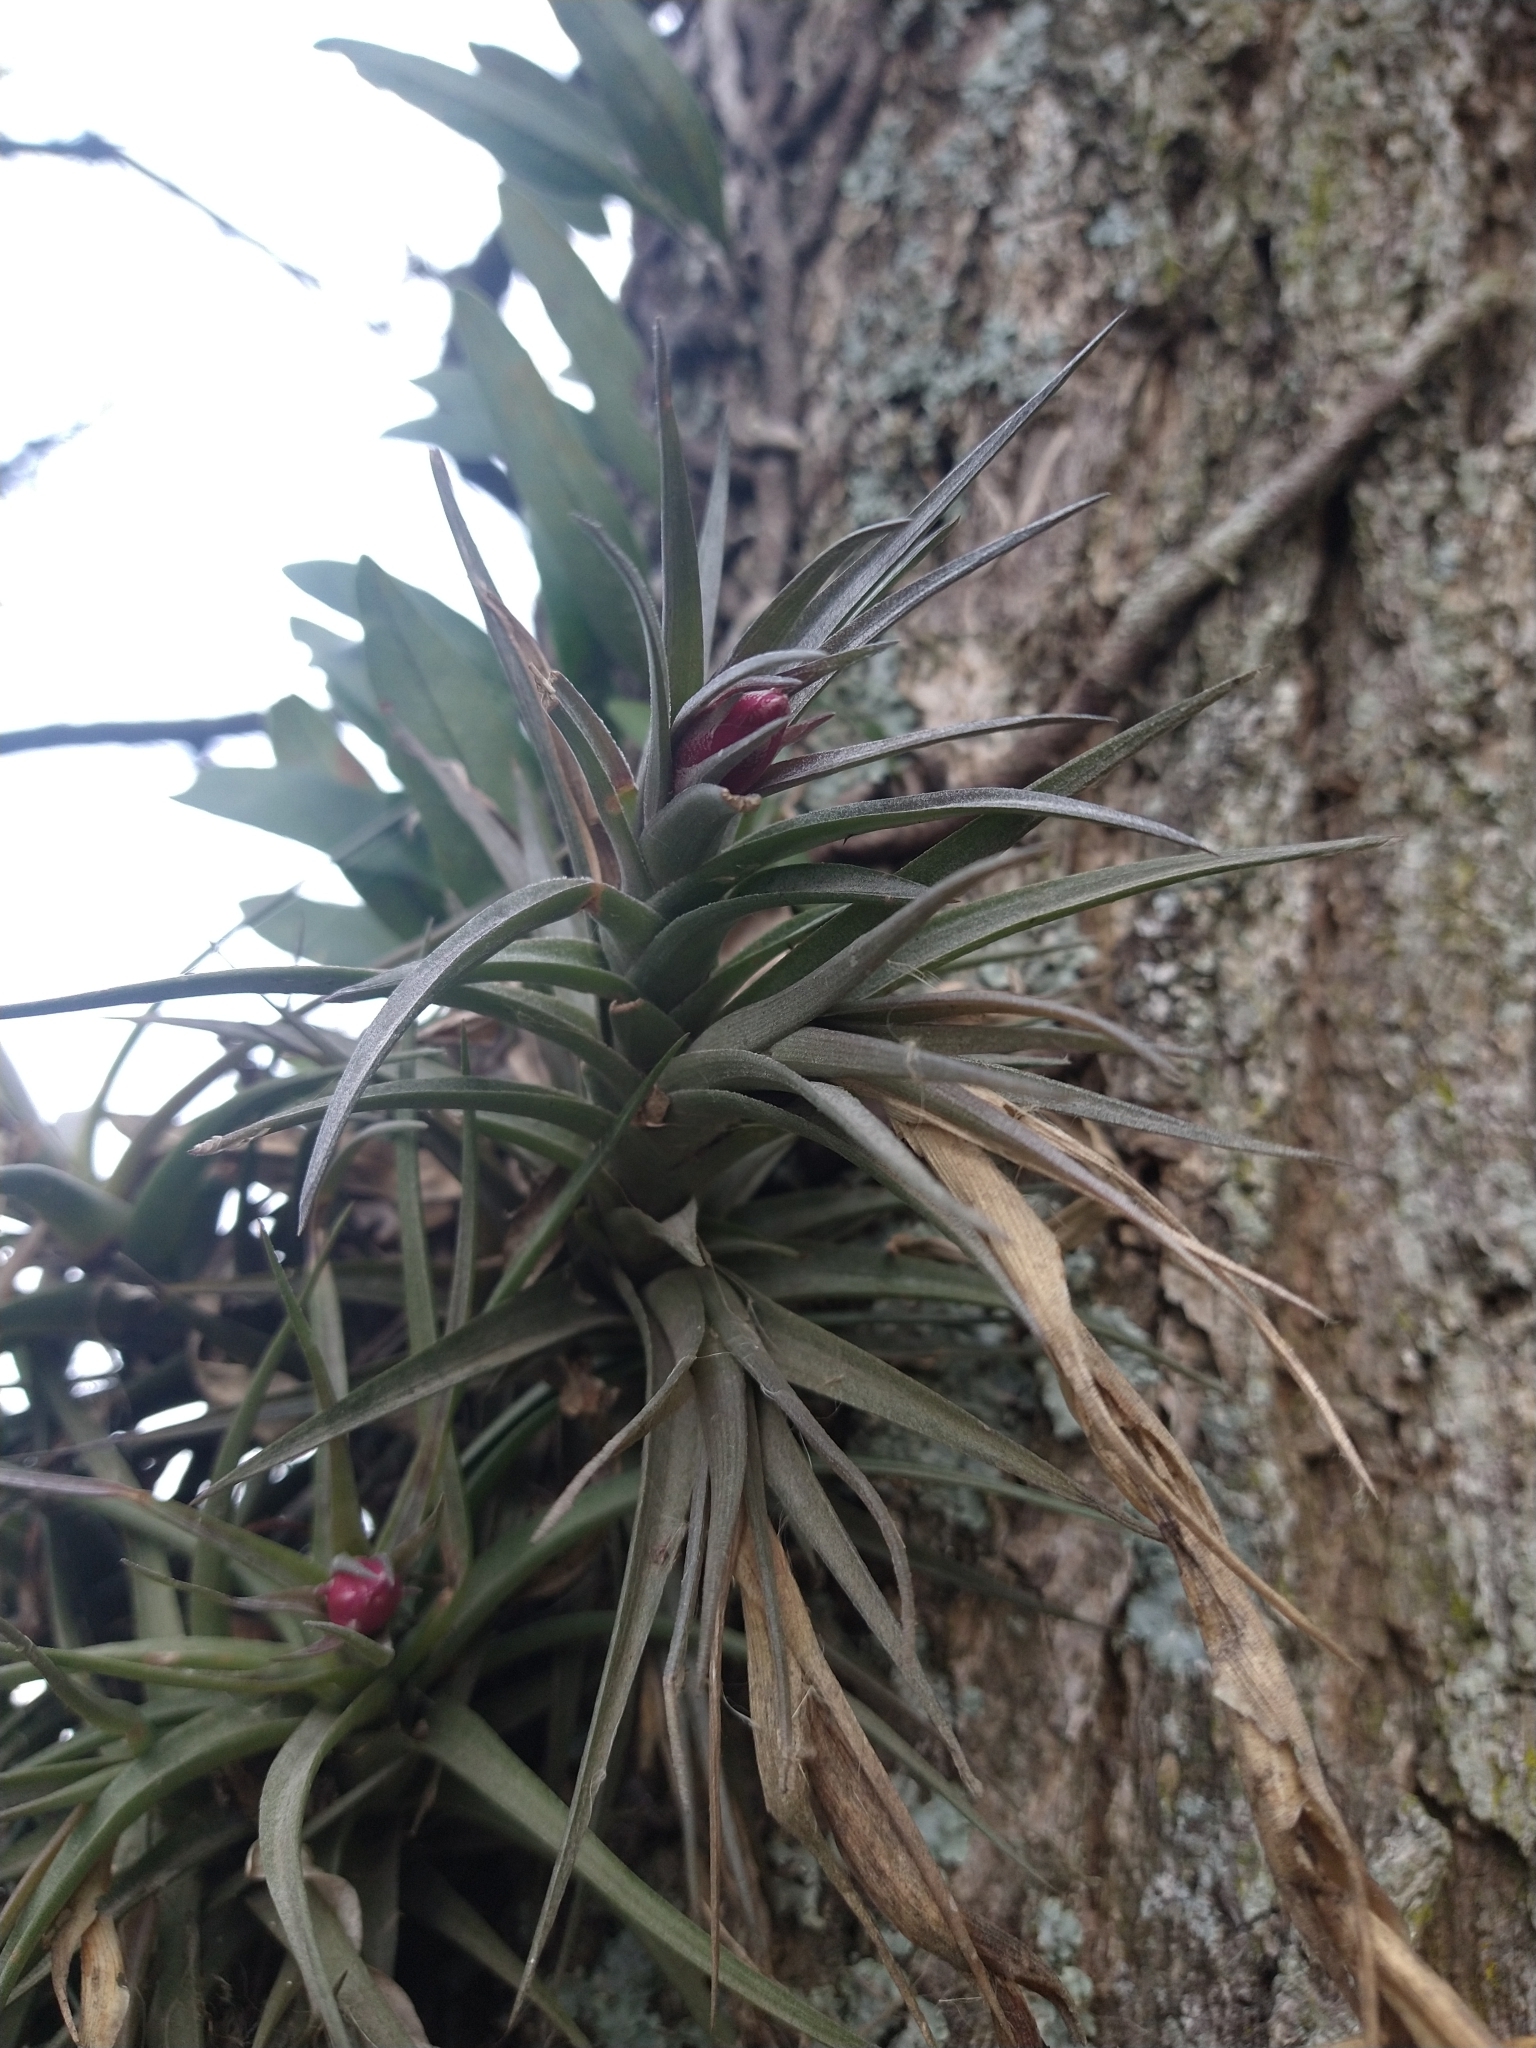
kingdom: Plantae
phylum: Tracheophyta
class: Liliopsida
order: Poales
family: Bromeliaceae
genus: Tillandsia
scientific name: Tillandsia aeranthos
